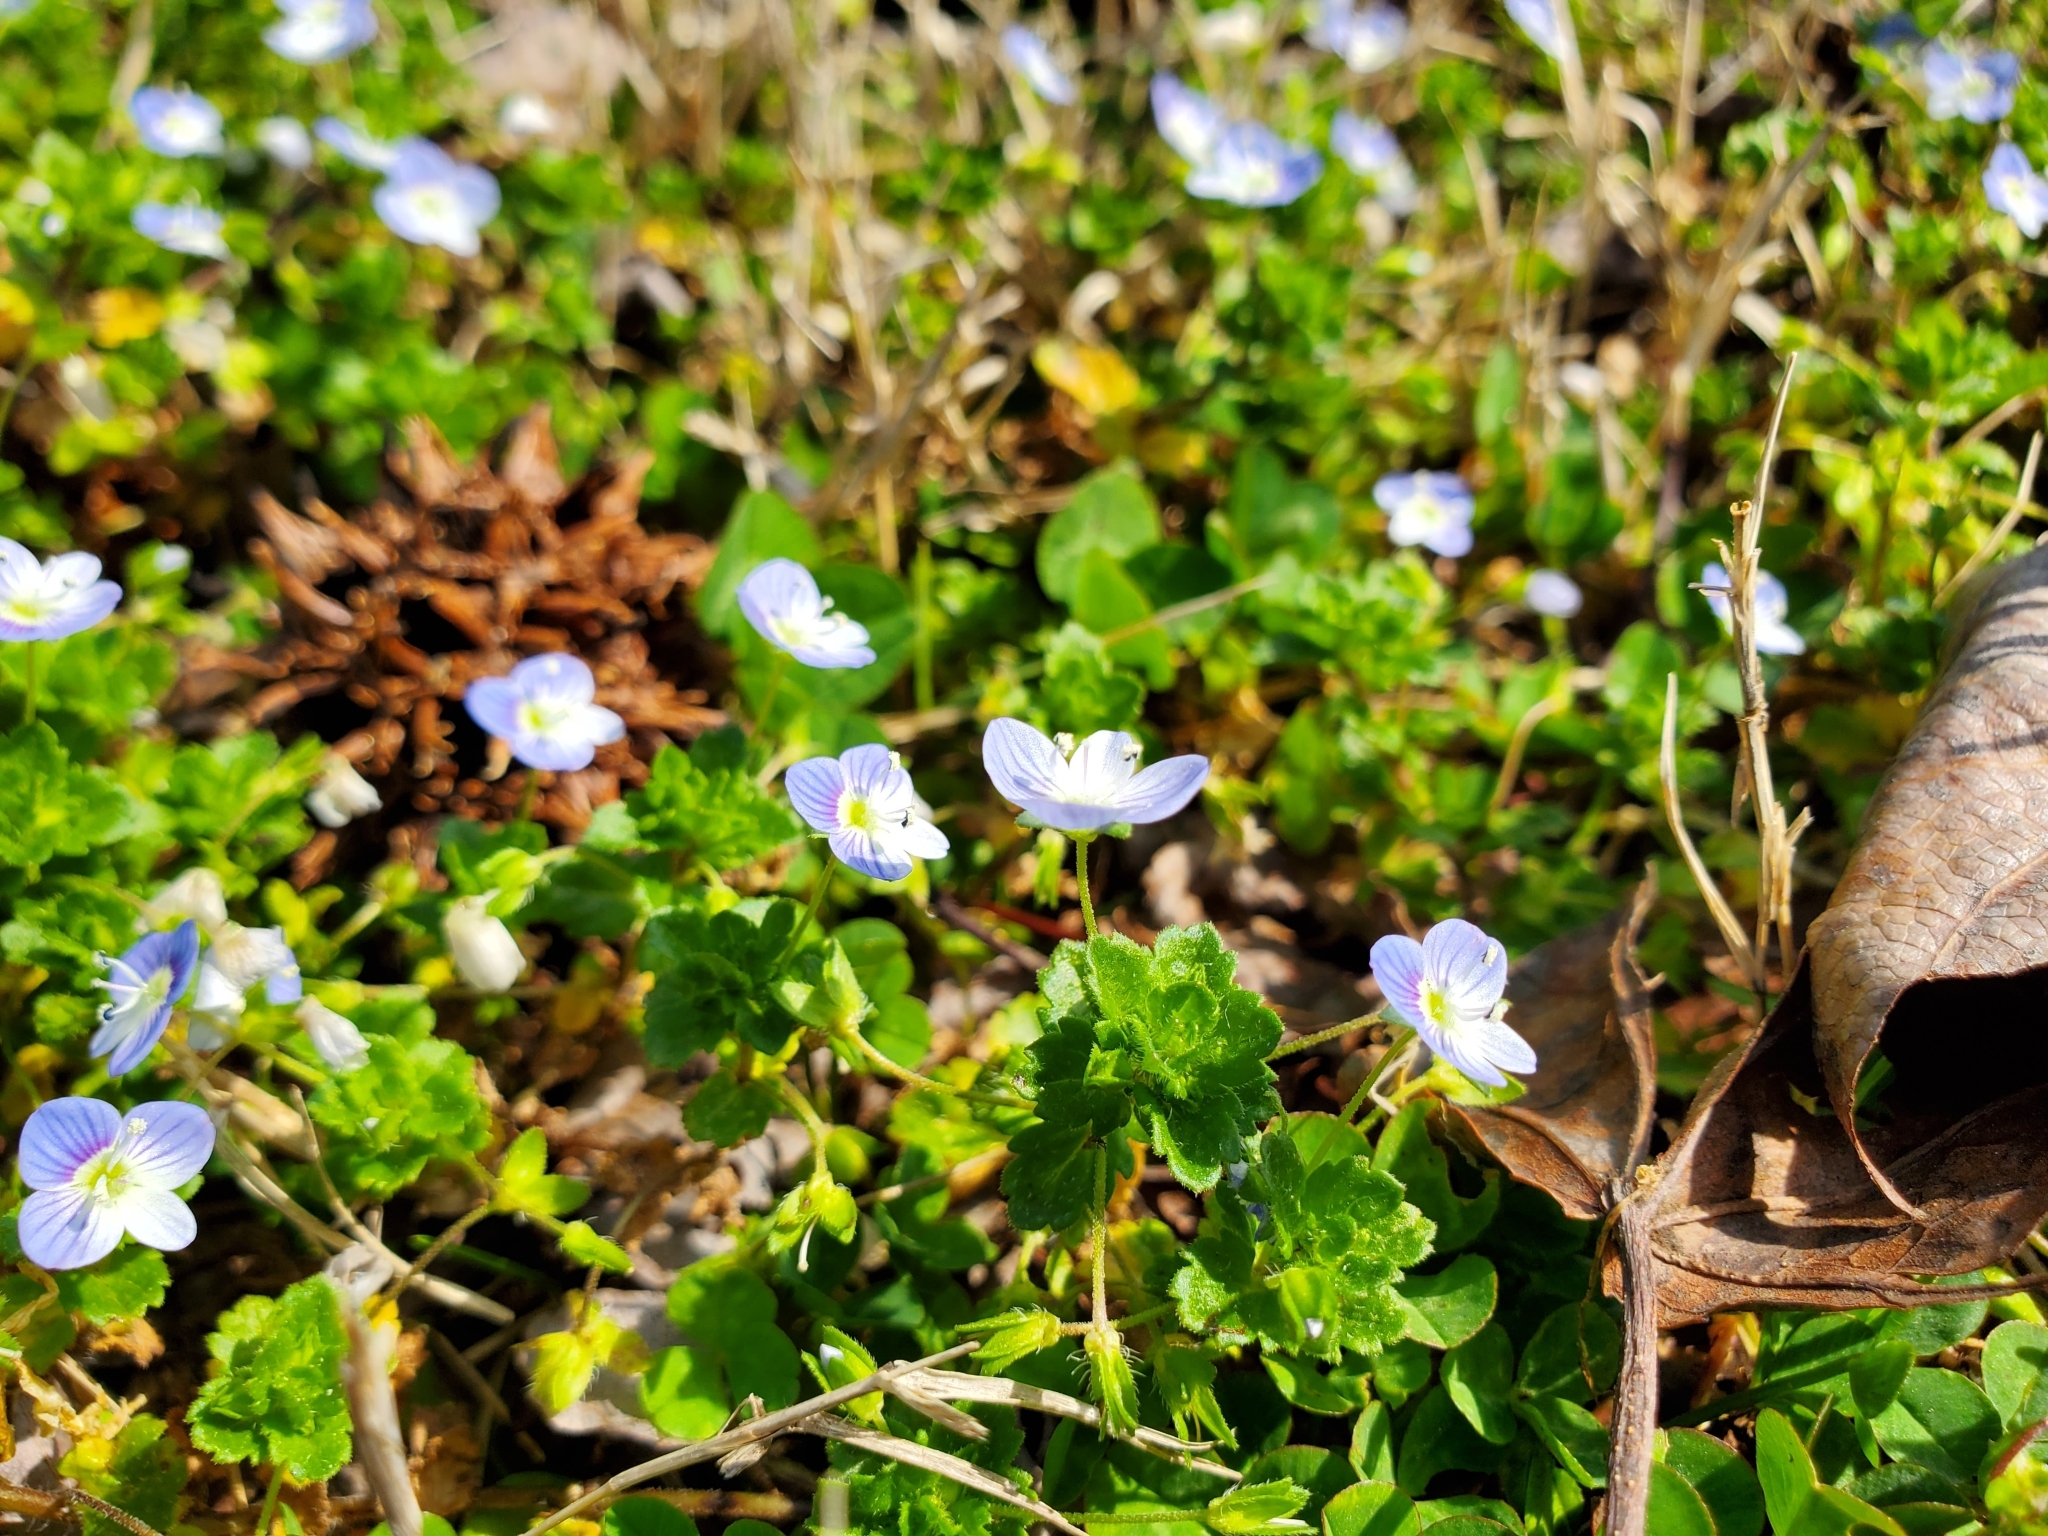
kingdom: Plantae
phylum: Tracheophyta
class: Magnoliopsida
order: Lamiales
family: Plantaginaceae
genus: Veronica
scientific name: Veronica persica
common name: Common field-speedwell
